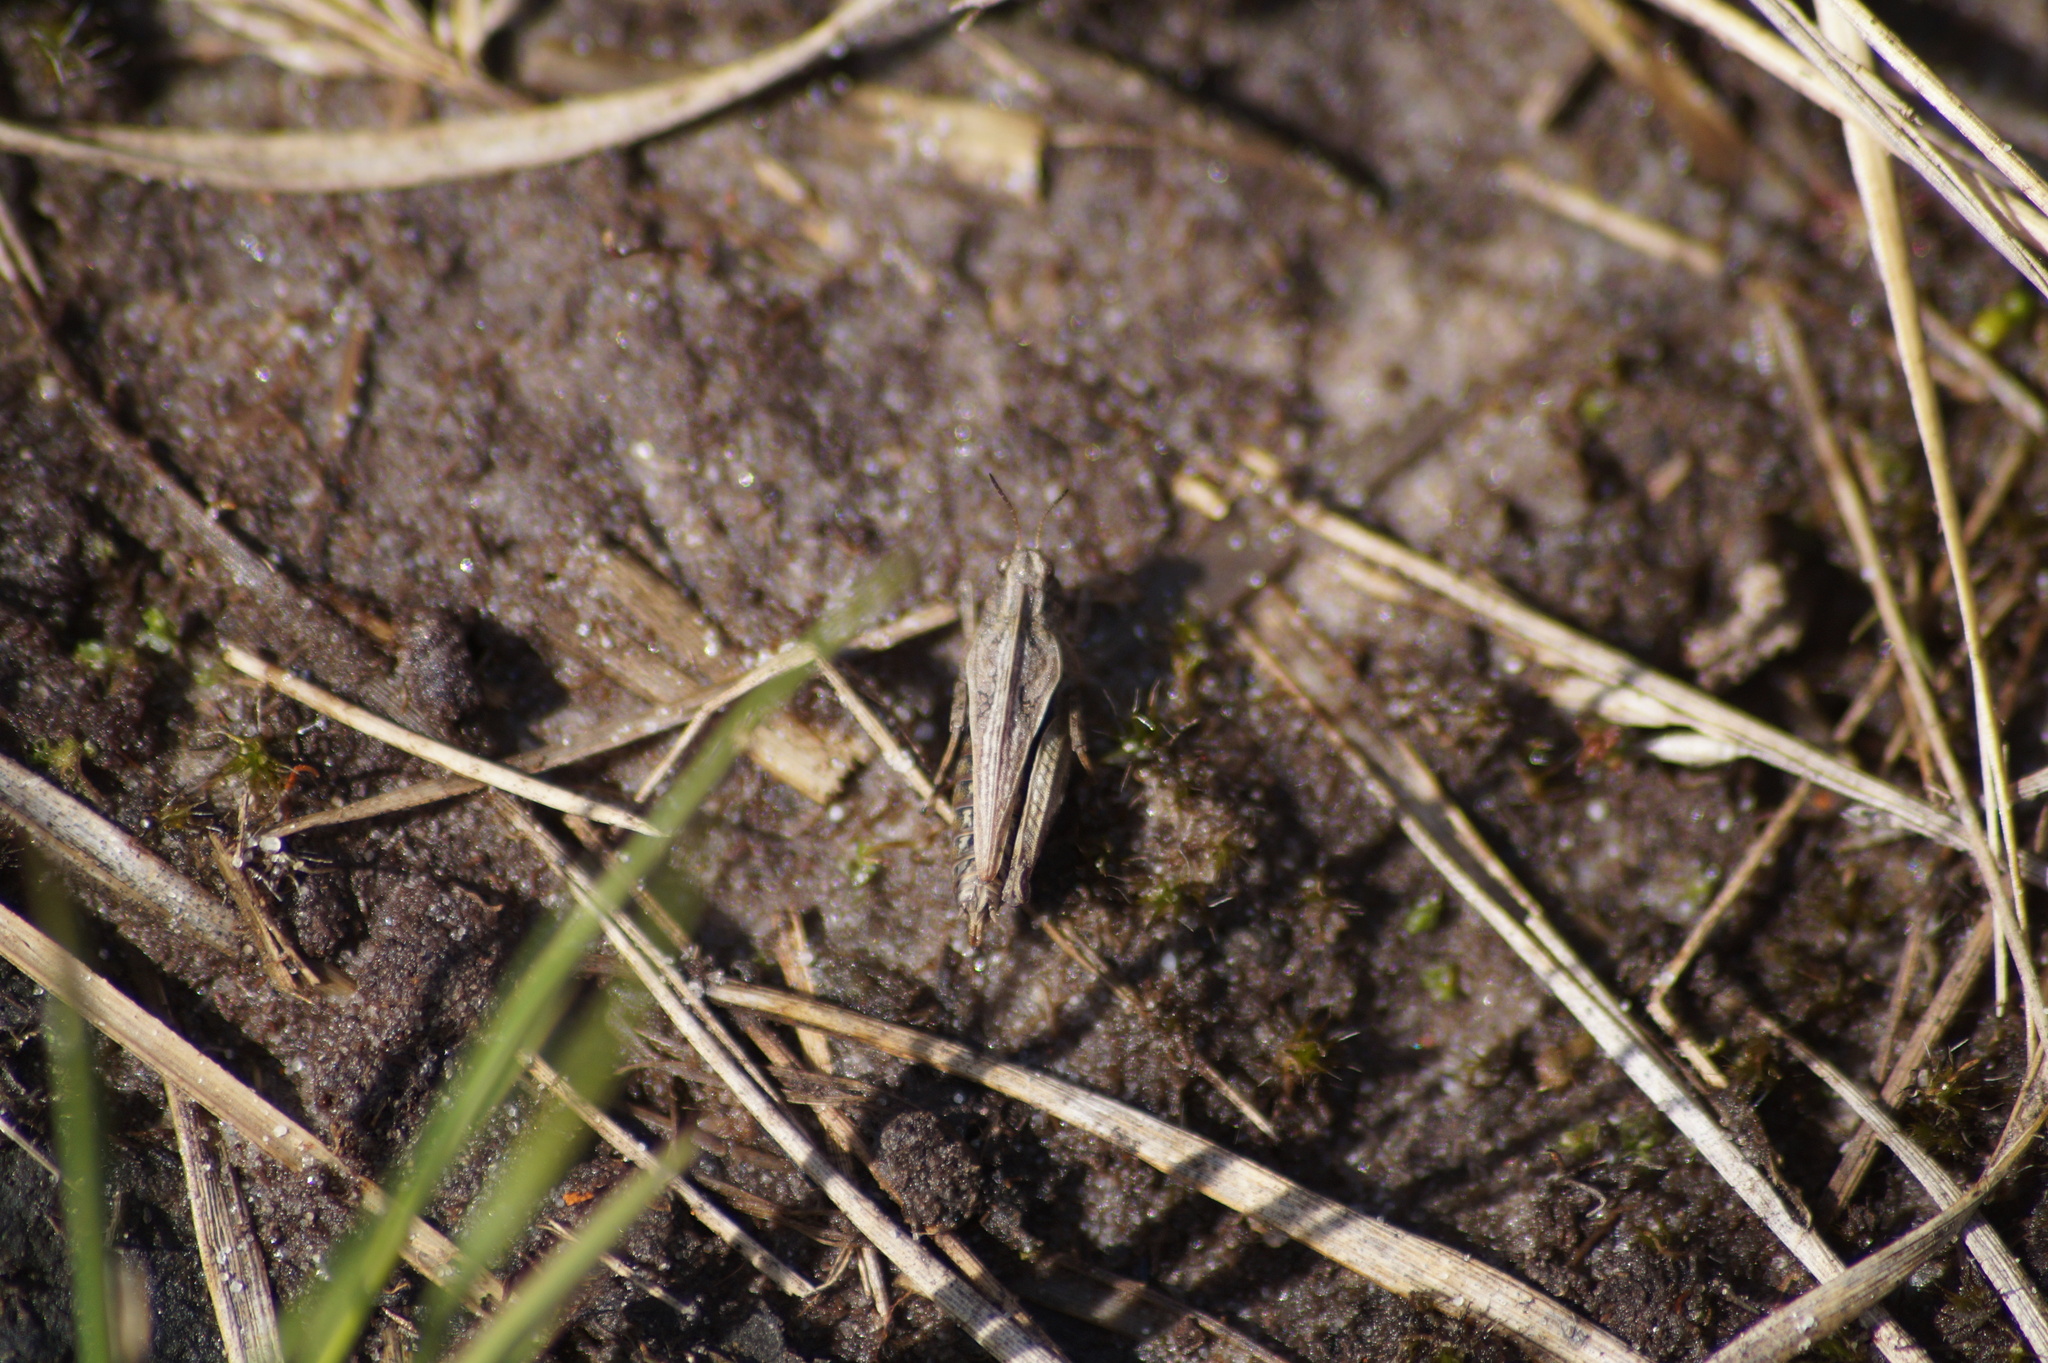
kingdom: Animalia
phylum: Arthropoda
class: Insecta
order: Orthoptera
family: Tetrigidae
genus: Tetrix
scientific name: Tetrix undulata
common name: Common groundhopper
